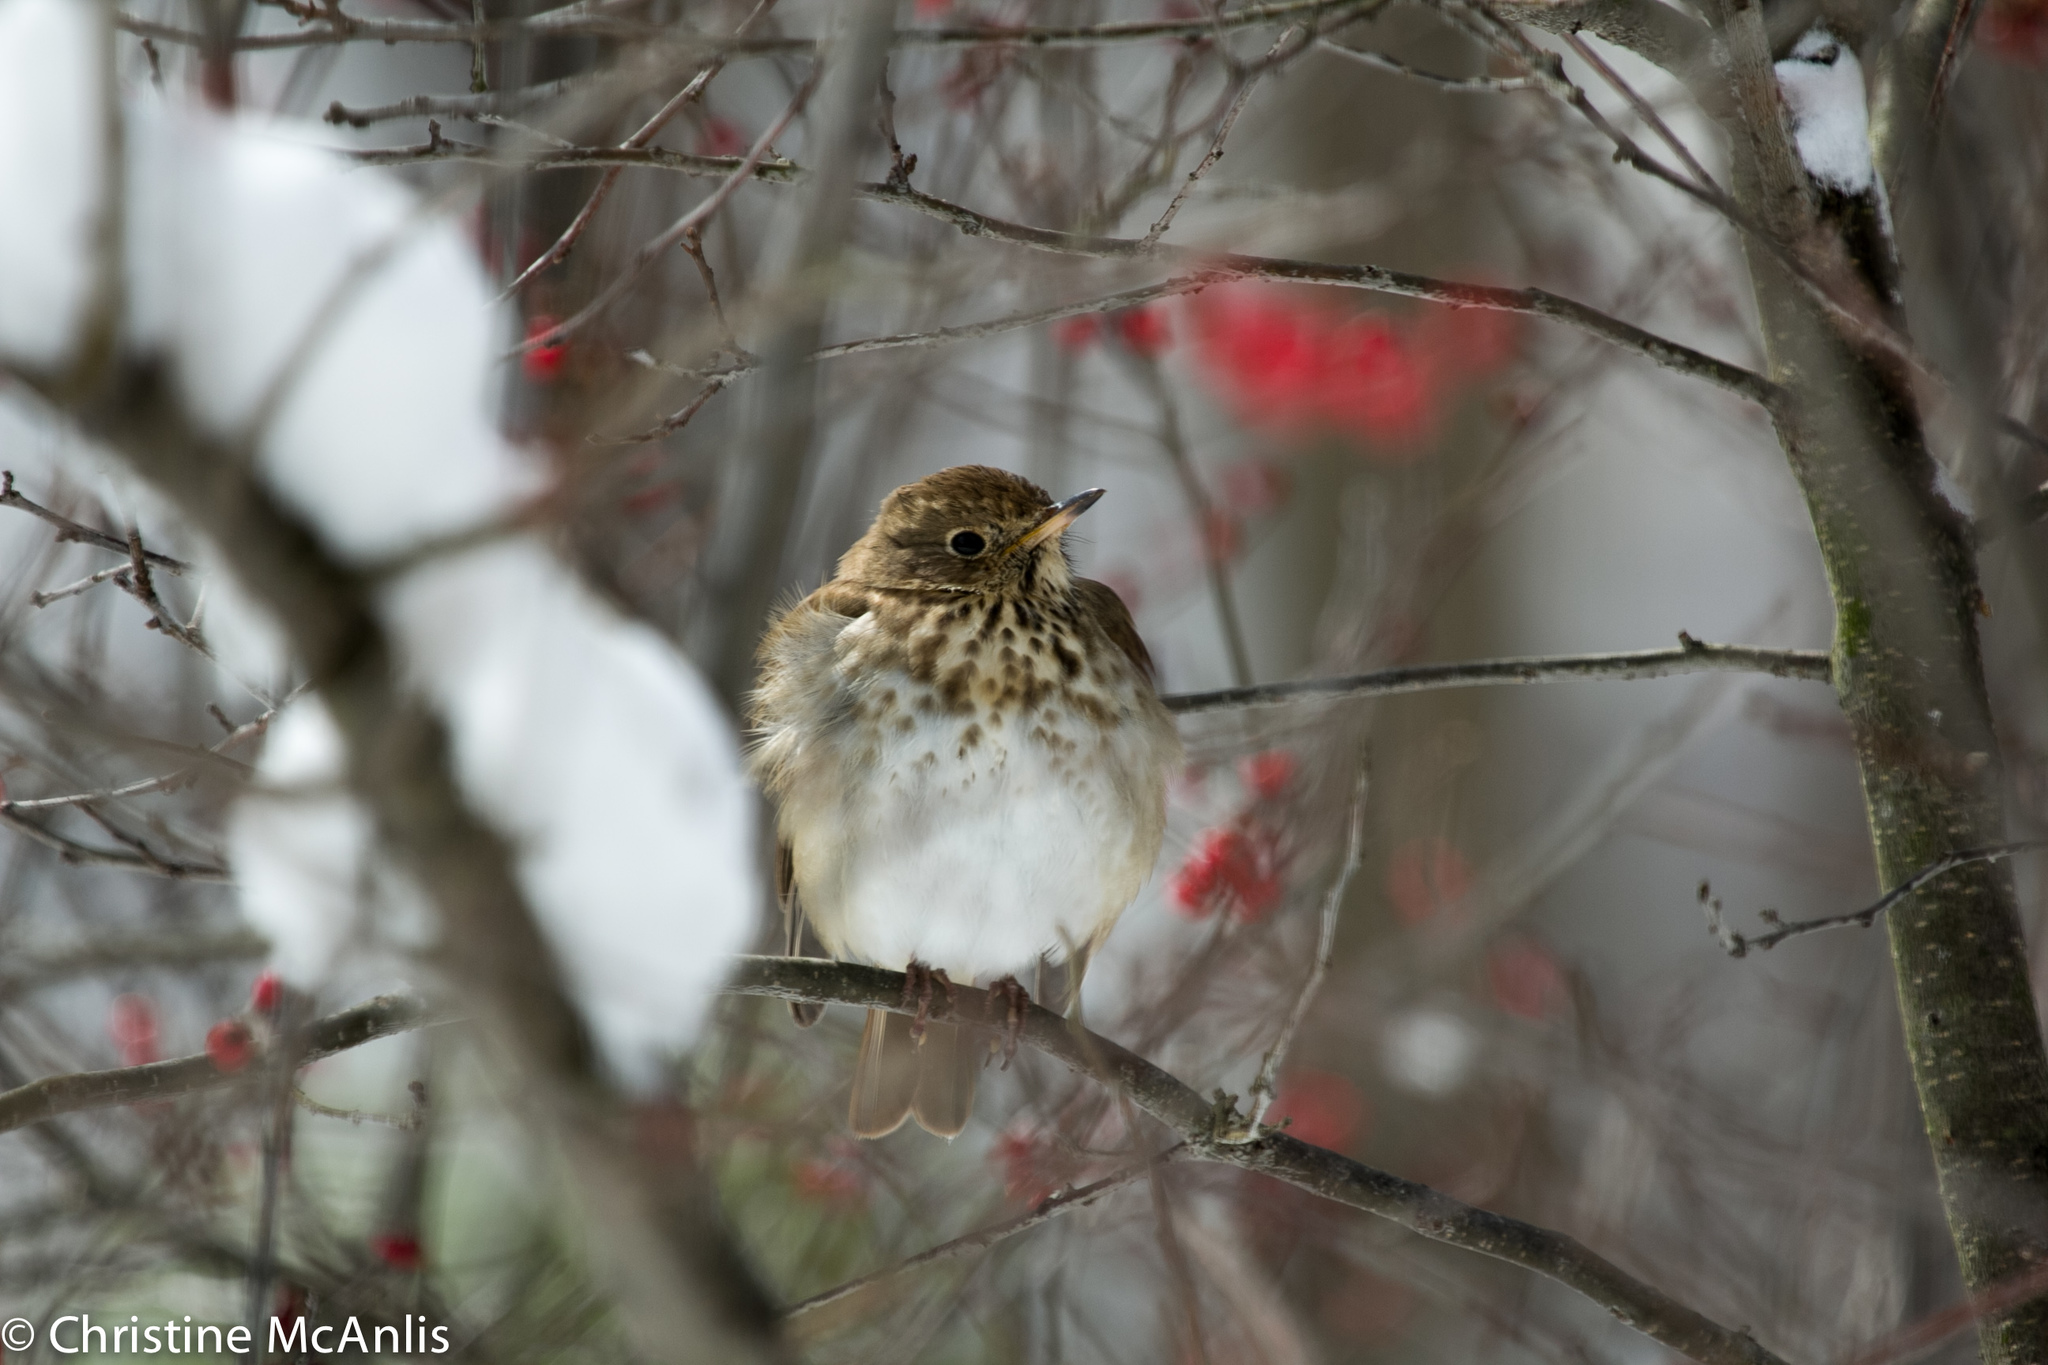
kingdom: Animalia
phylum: Chordata
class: Aves
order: Passeriformes
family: Turdidae
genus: Catharus
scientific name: Catharus guttatus
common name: Hermit thrush
